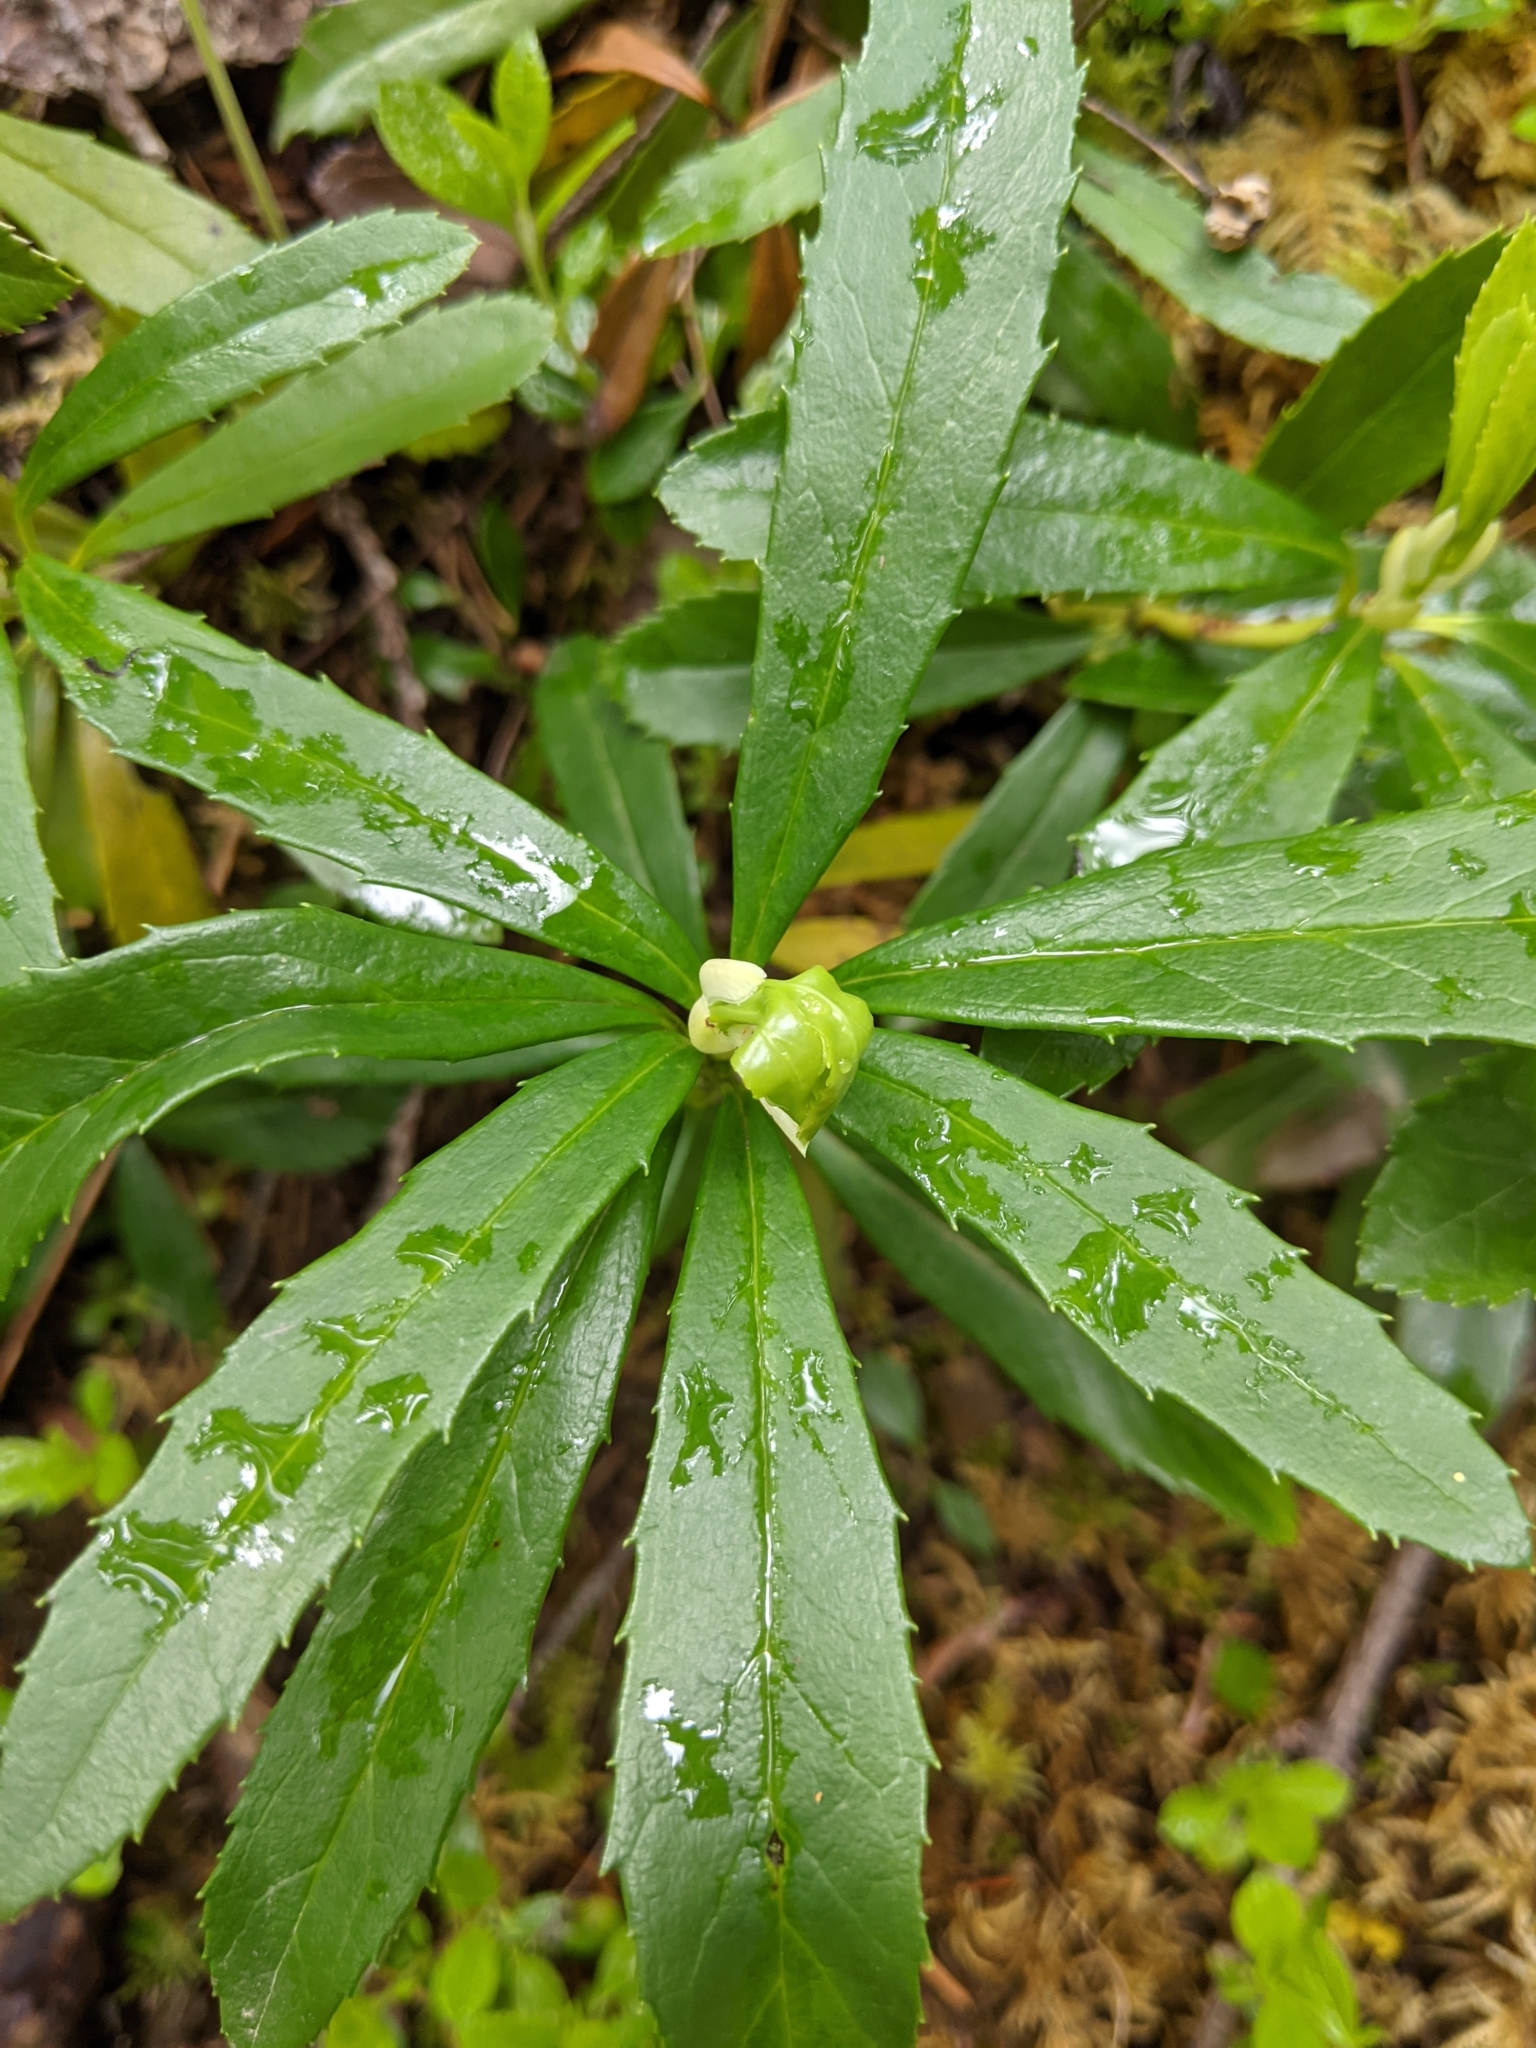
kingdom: Plantae
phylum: Tracheophyta
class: Magnoliopsida
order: Ericales
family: Ericaceae
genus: Chimaphila
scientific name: Chimaphila umbellata
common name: Pipsissewa
